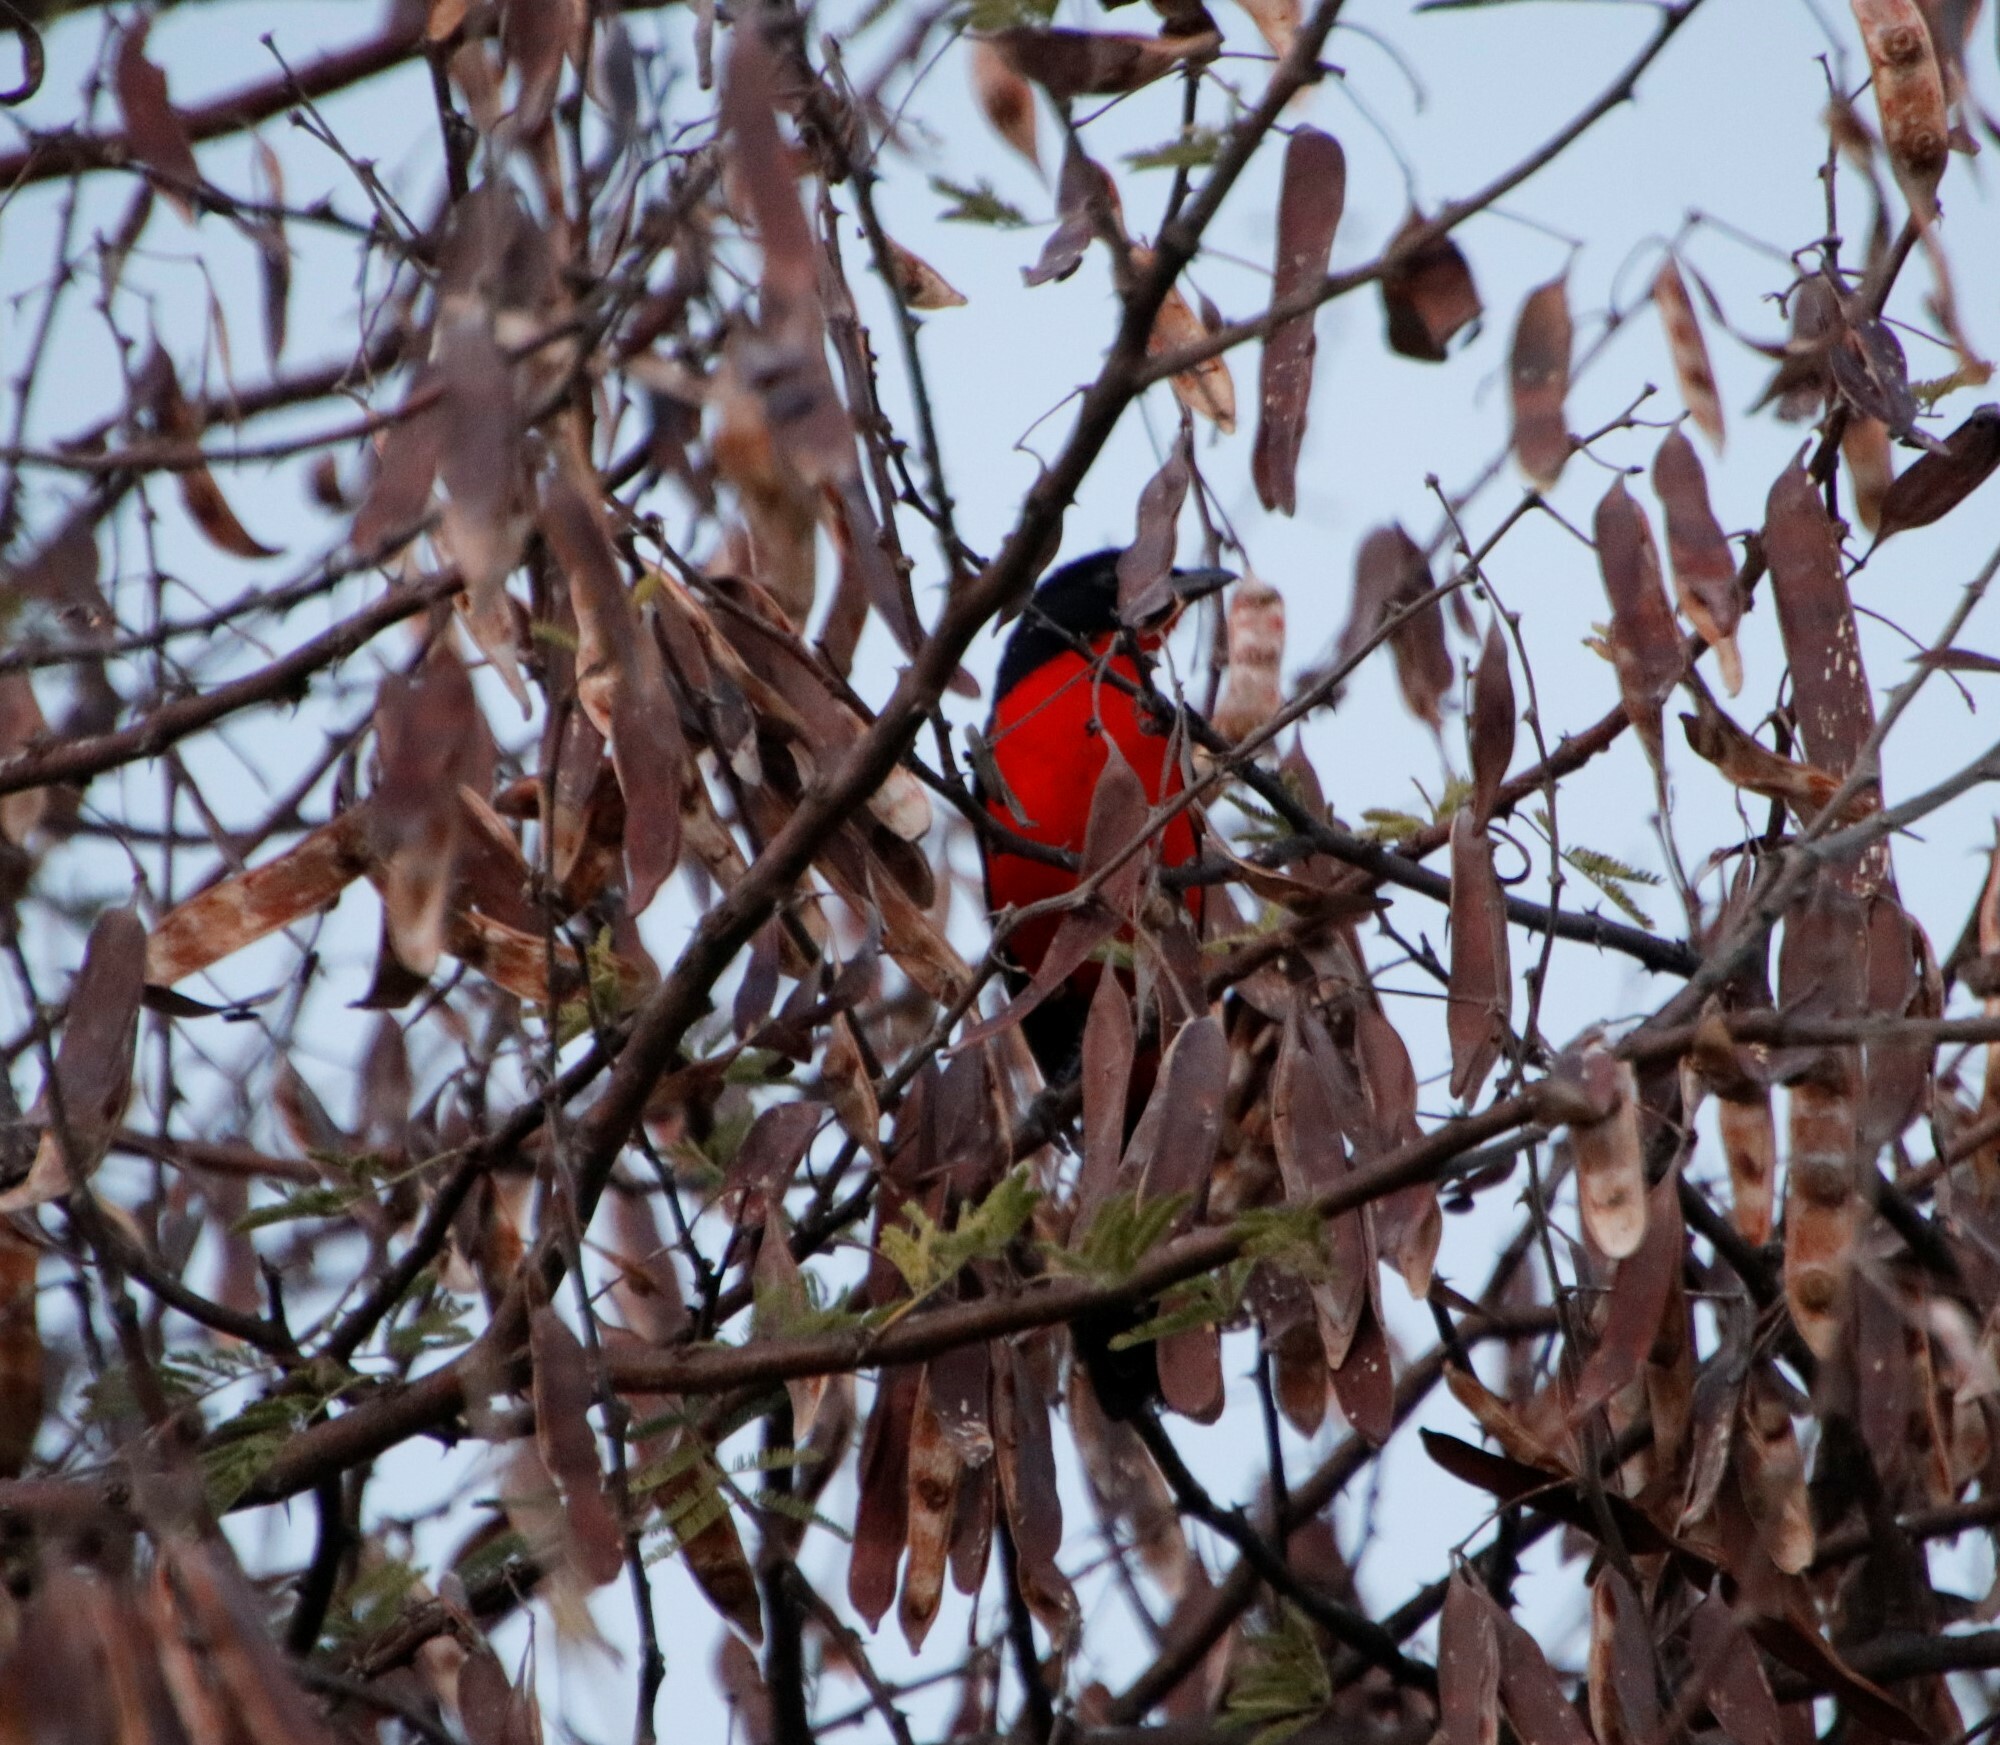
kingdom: Animalia
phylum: Chordata
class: Aves
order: Passeriformes
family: Malaconotidae
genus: Laniarius
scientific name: Laniarius atrococcineus
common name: Crimson-breasted shrike
